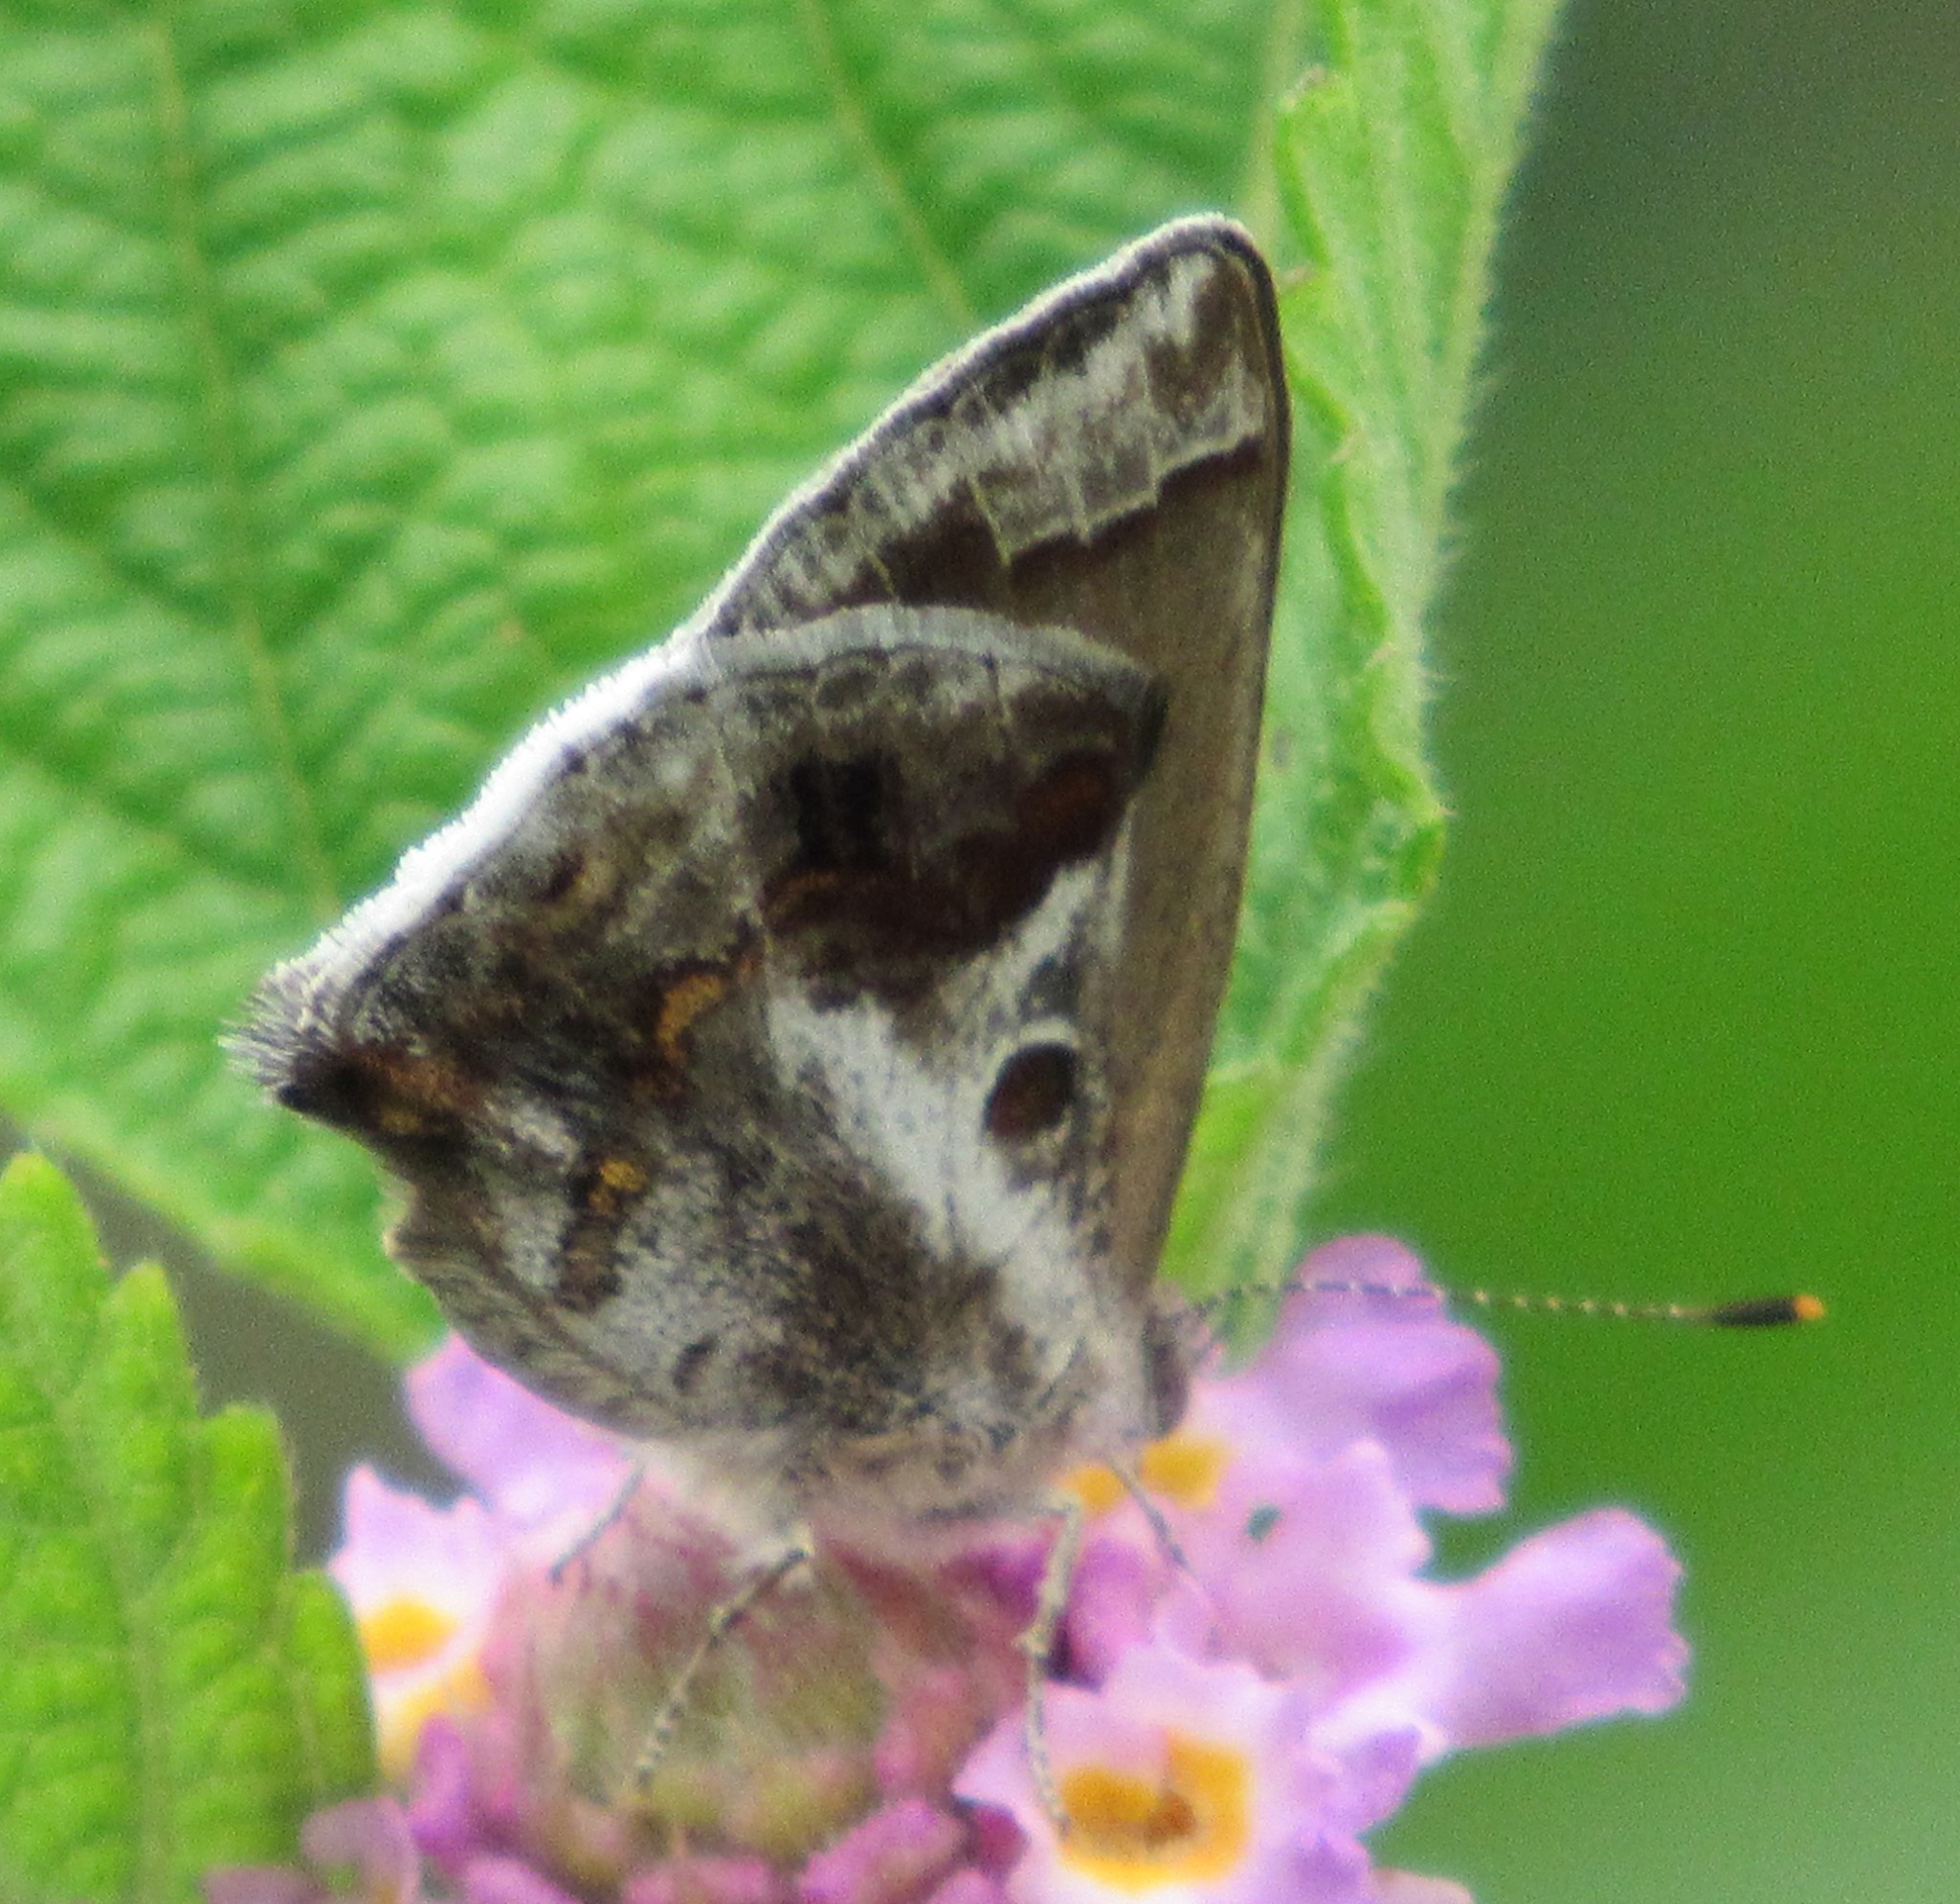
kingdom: Animalia
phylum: Arthropoda
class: Insecta
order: Lepidoptera
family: Lycaenidae
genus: Strymon
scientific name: Strymon bazochii
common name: Lantana scrub-hairstreak
